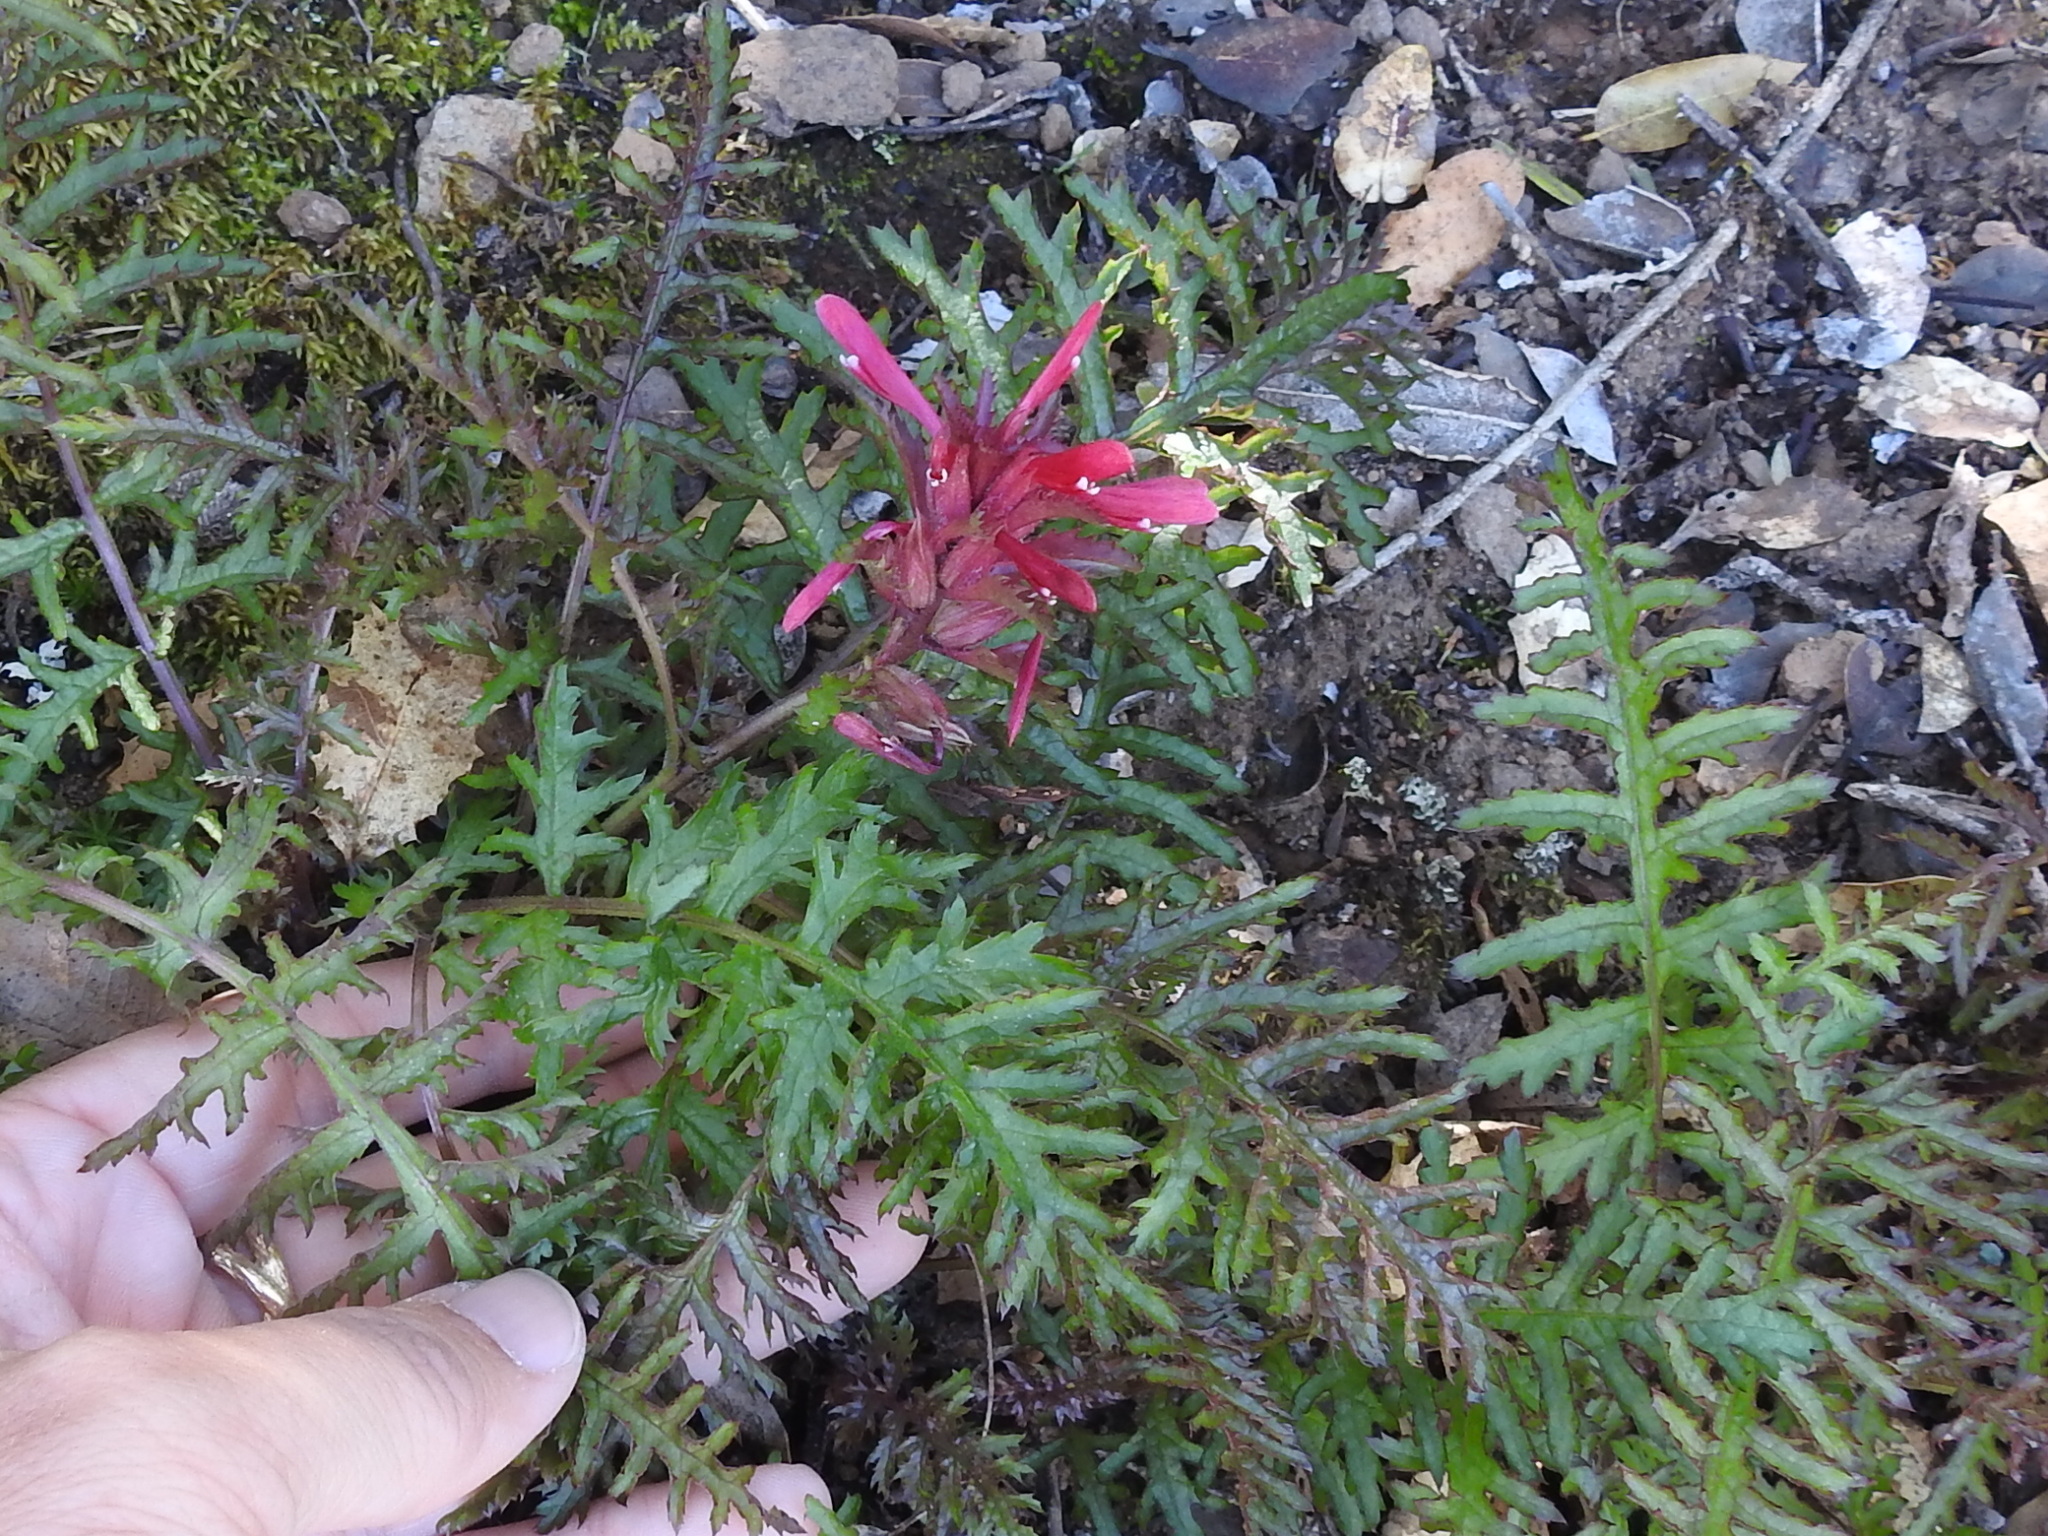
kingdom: Plantae
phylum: Tracheophyta
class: Magnoliopsida
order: Lamiales
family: Orobanchaceae
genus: Pedicularis
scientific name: Pedicularis densiflora
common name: Indian warrior
